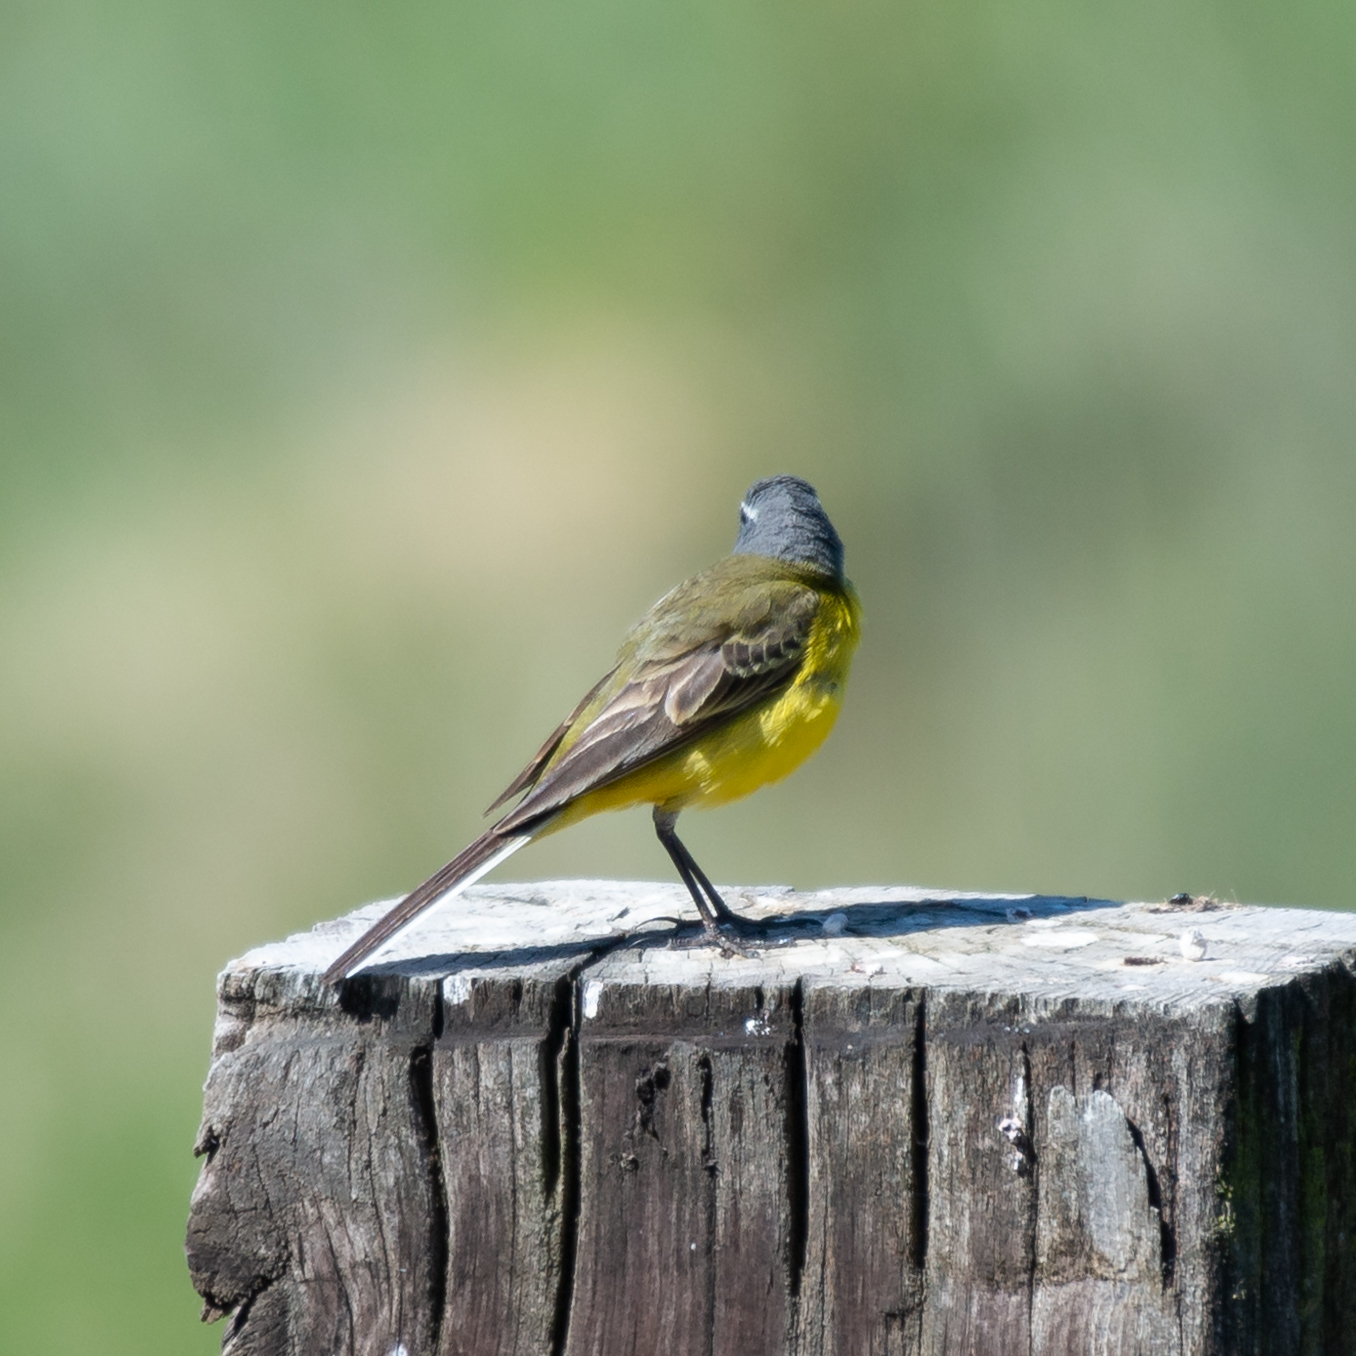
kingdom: Animalia
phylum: Chordata
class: Aves
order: Passeriformes
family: Motacillidae
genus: Motacilla
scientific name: Motacilla flava
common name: Western yellow wagtail
